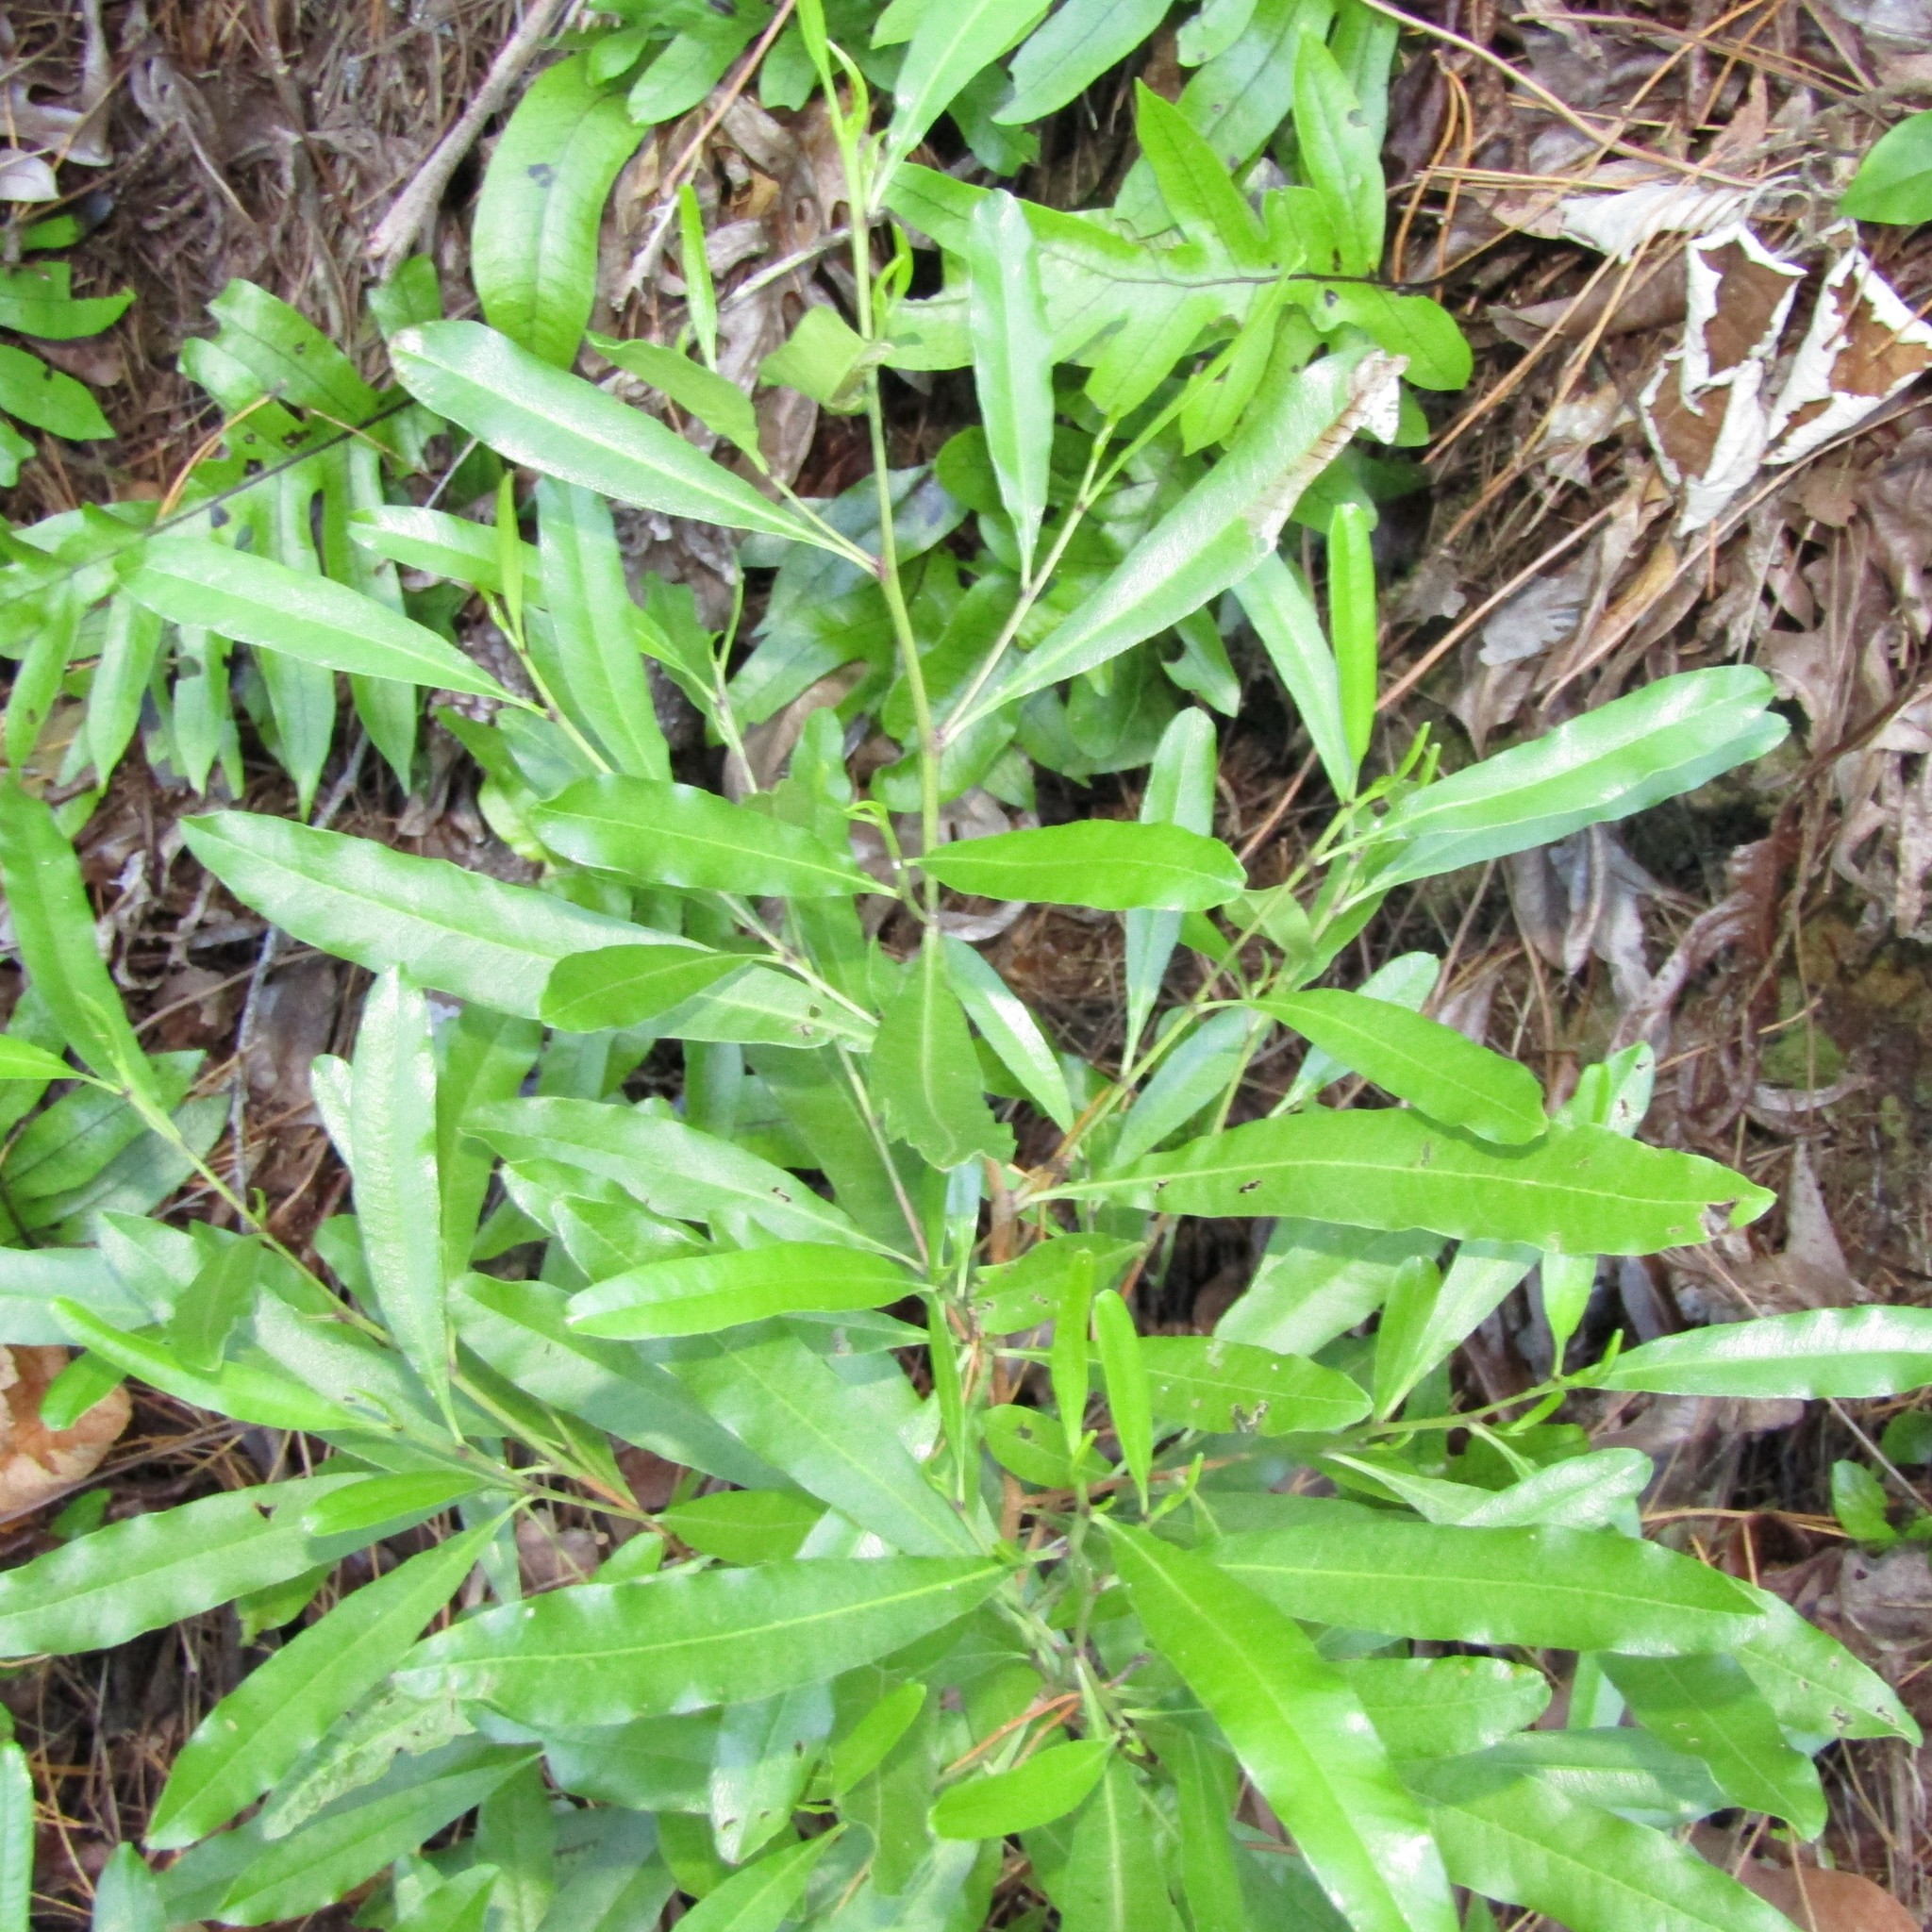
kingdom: Plantae
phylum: Tracheophyta
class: Magnoliopsida
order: Sapindales
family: Sapindaceae
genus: Dodonaea
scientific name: Dodonaea viscosa
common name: Hopbush
